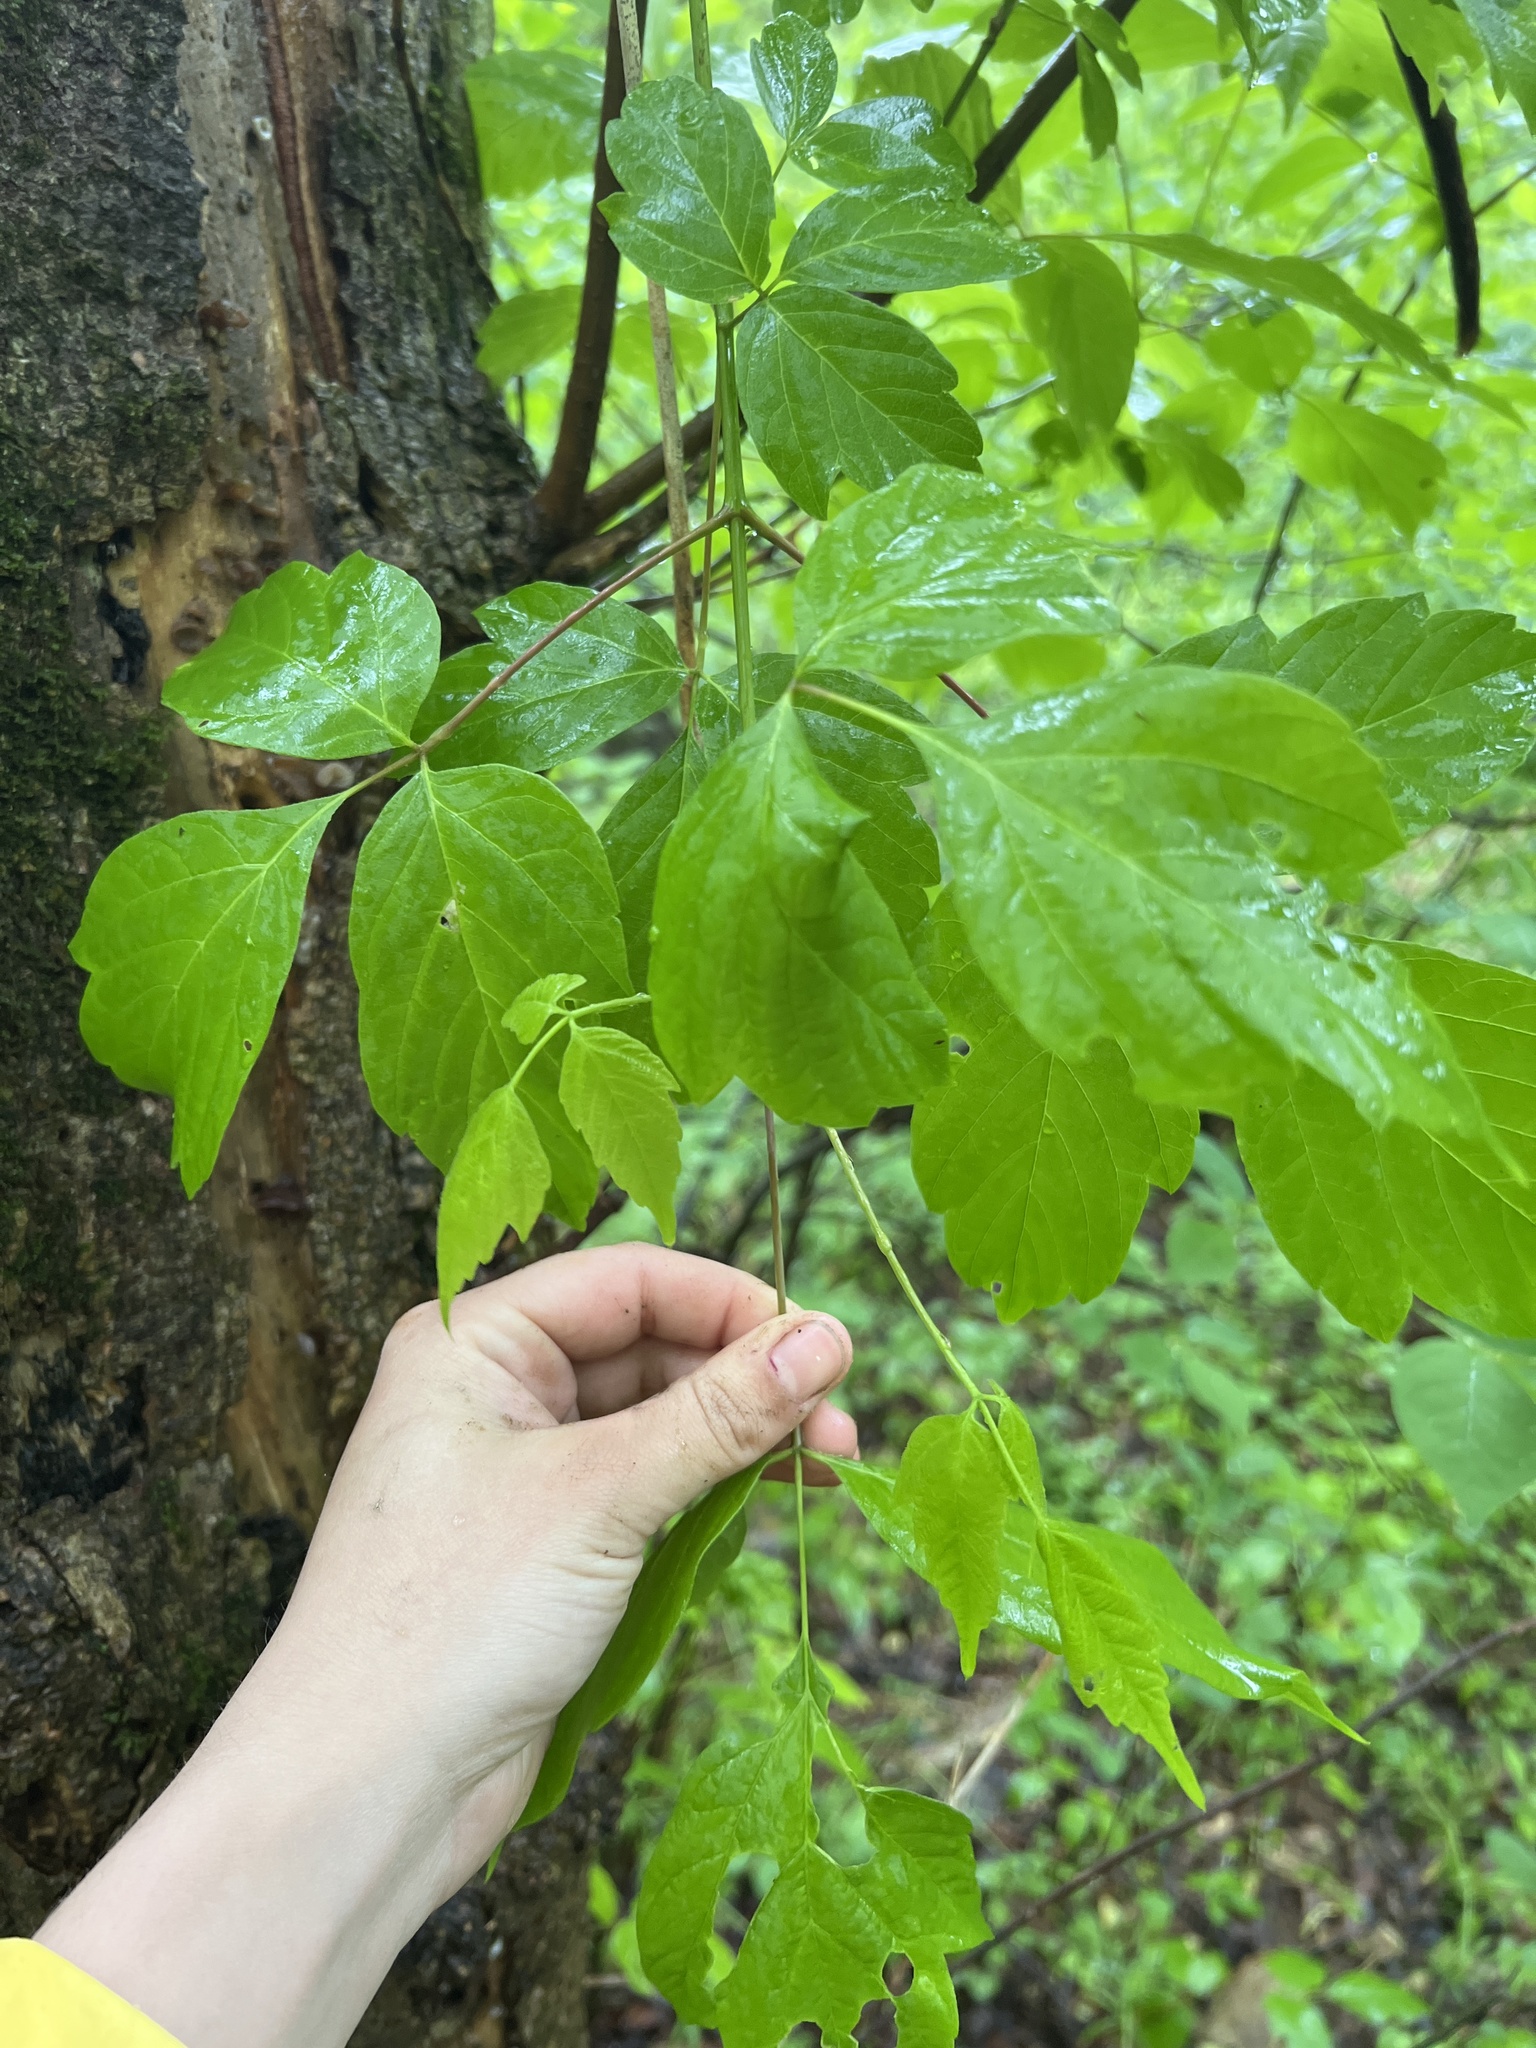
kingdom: Plantae
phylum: Tracheophyta
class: Magnoliopsida
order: Sapindales
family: Sapindaceae
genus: Acer
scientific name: Acer negundo
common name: Ashleaf maple
